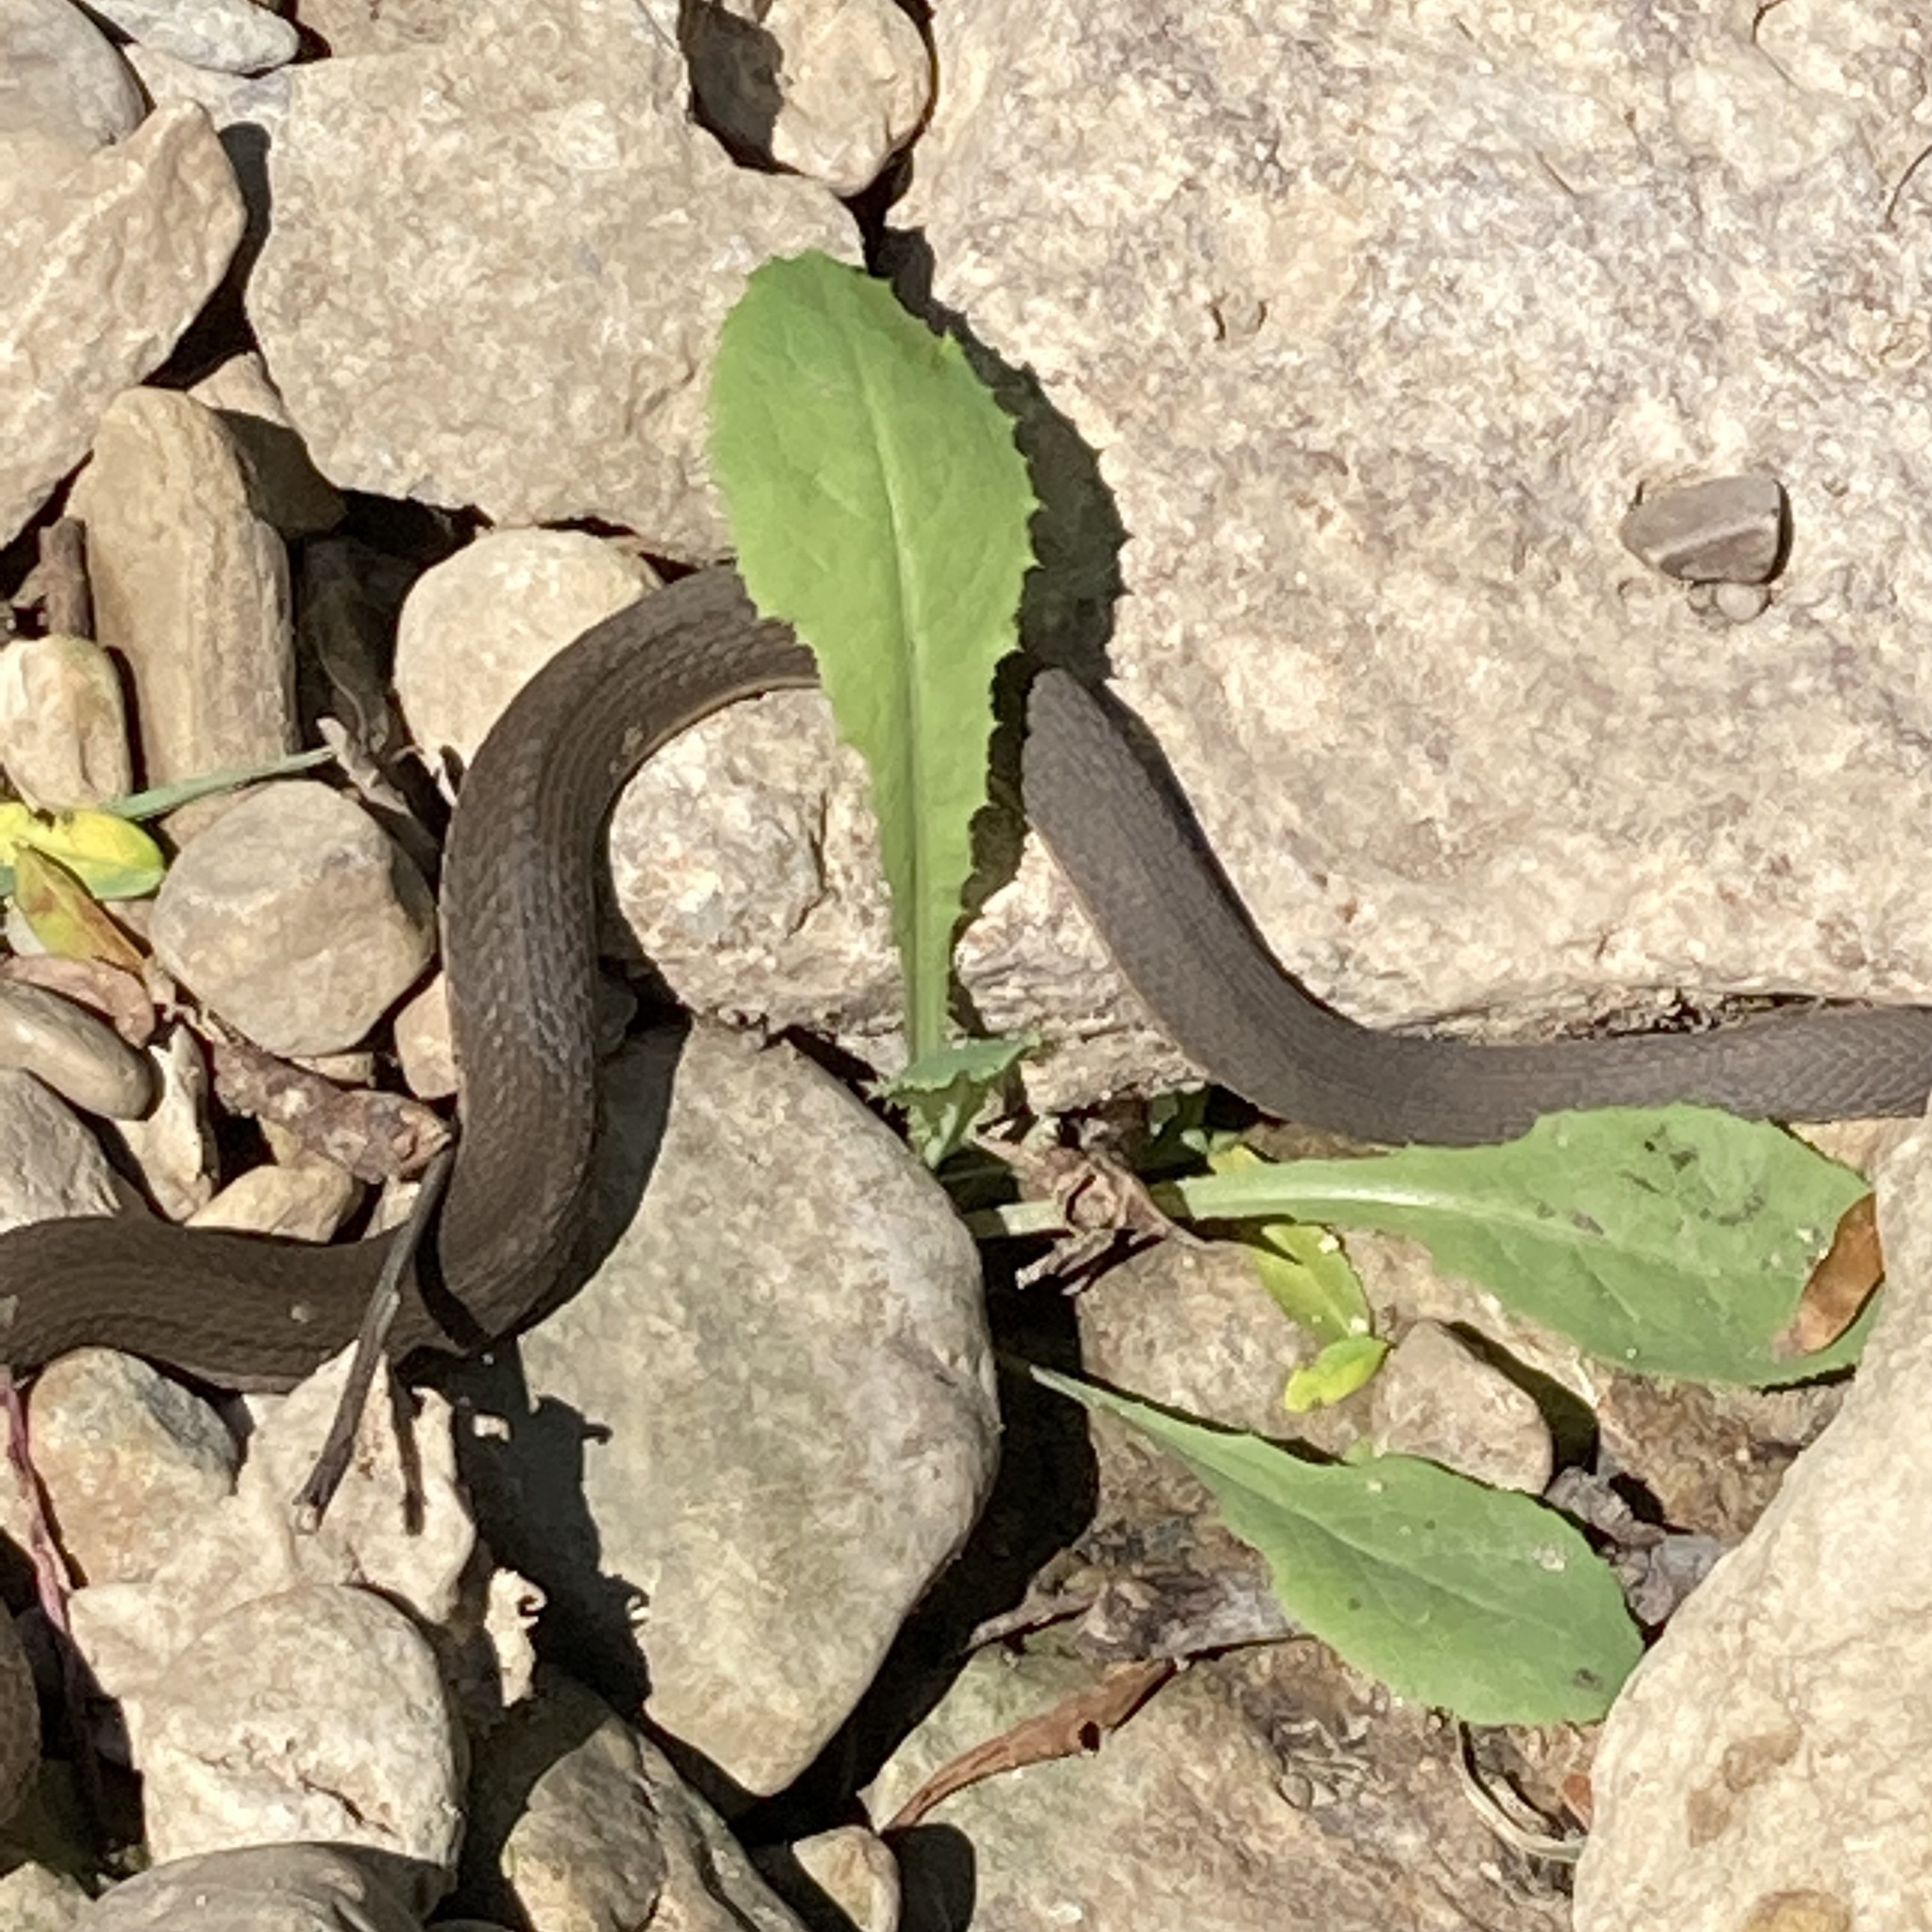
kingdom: Animalia
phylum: Chordata
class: Squamata
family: Colubridae
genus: Regina
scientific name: Regina septemvittata
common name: Queen snake
